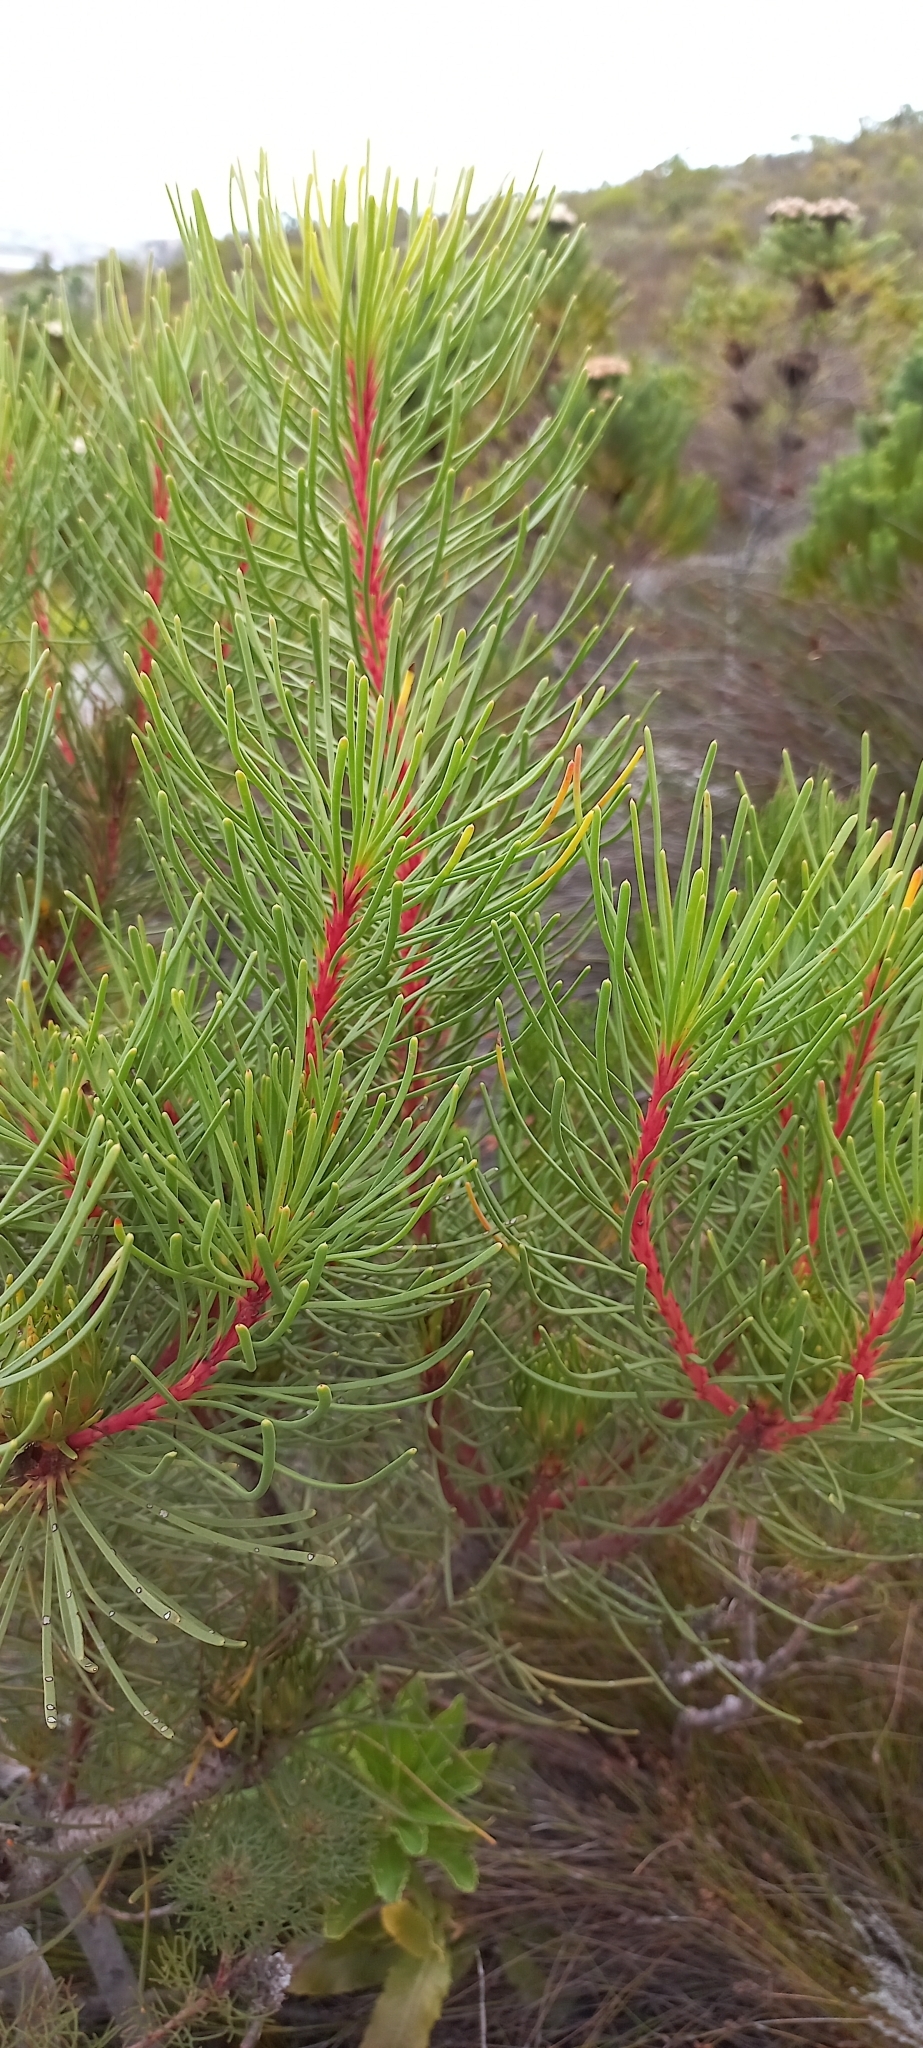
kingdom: Plantae
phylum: Tracheophyta
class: Magnoliopsida
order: Proteales
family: Proteaceae
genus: Aulax
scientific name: Aulax cancellata
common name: Channel-leaf featherbush
